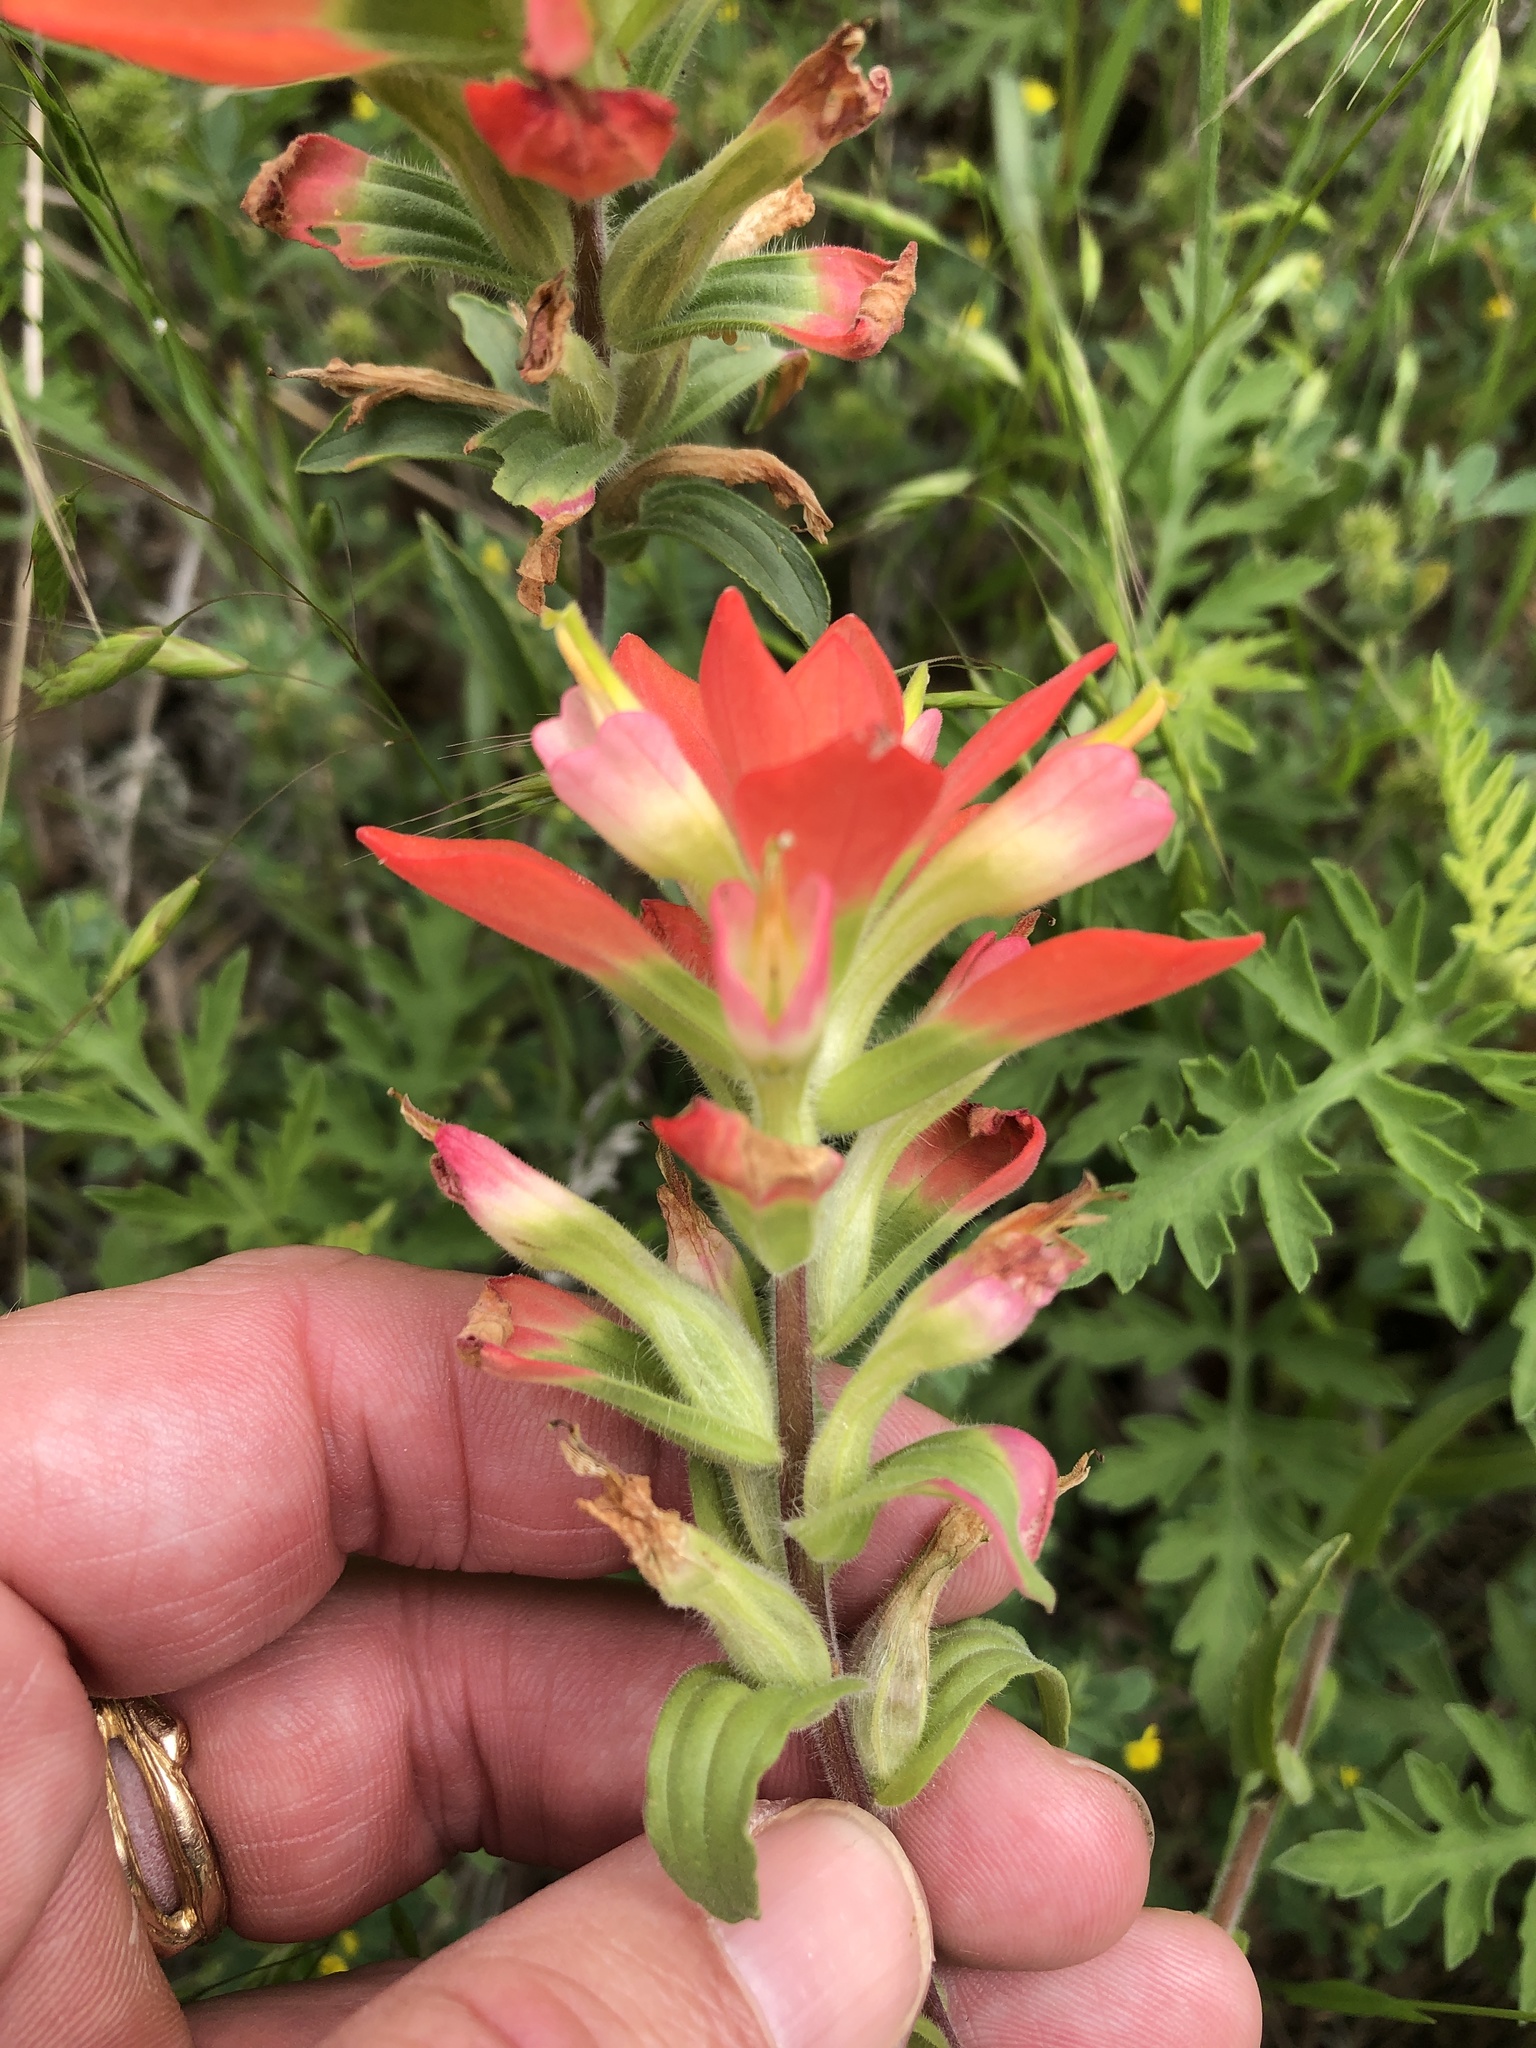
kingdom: Plantae
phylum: Tracheophyta
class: Magnoliopsida
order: Lamiales
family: Orobanchaceae
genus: Castilleja
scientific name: Castilleja indivisa
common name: Texas paintbrush
